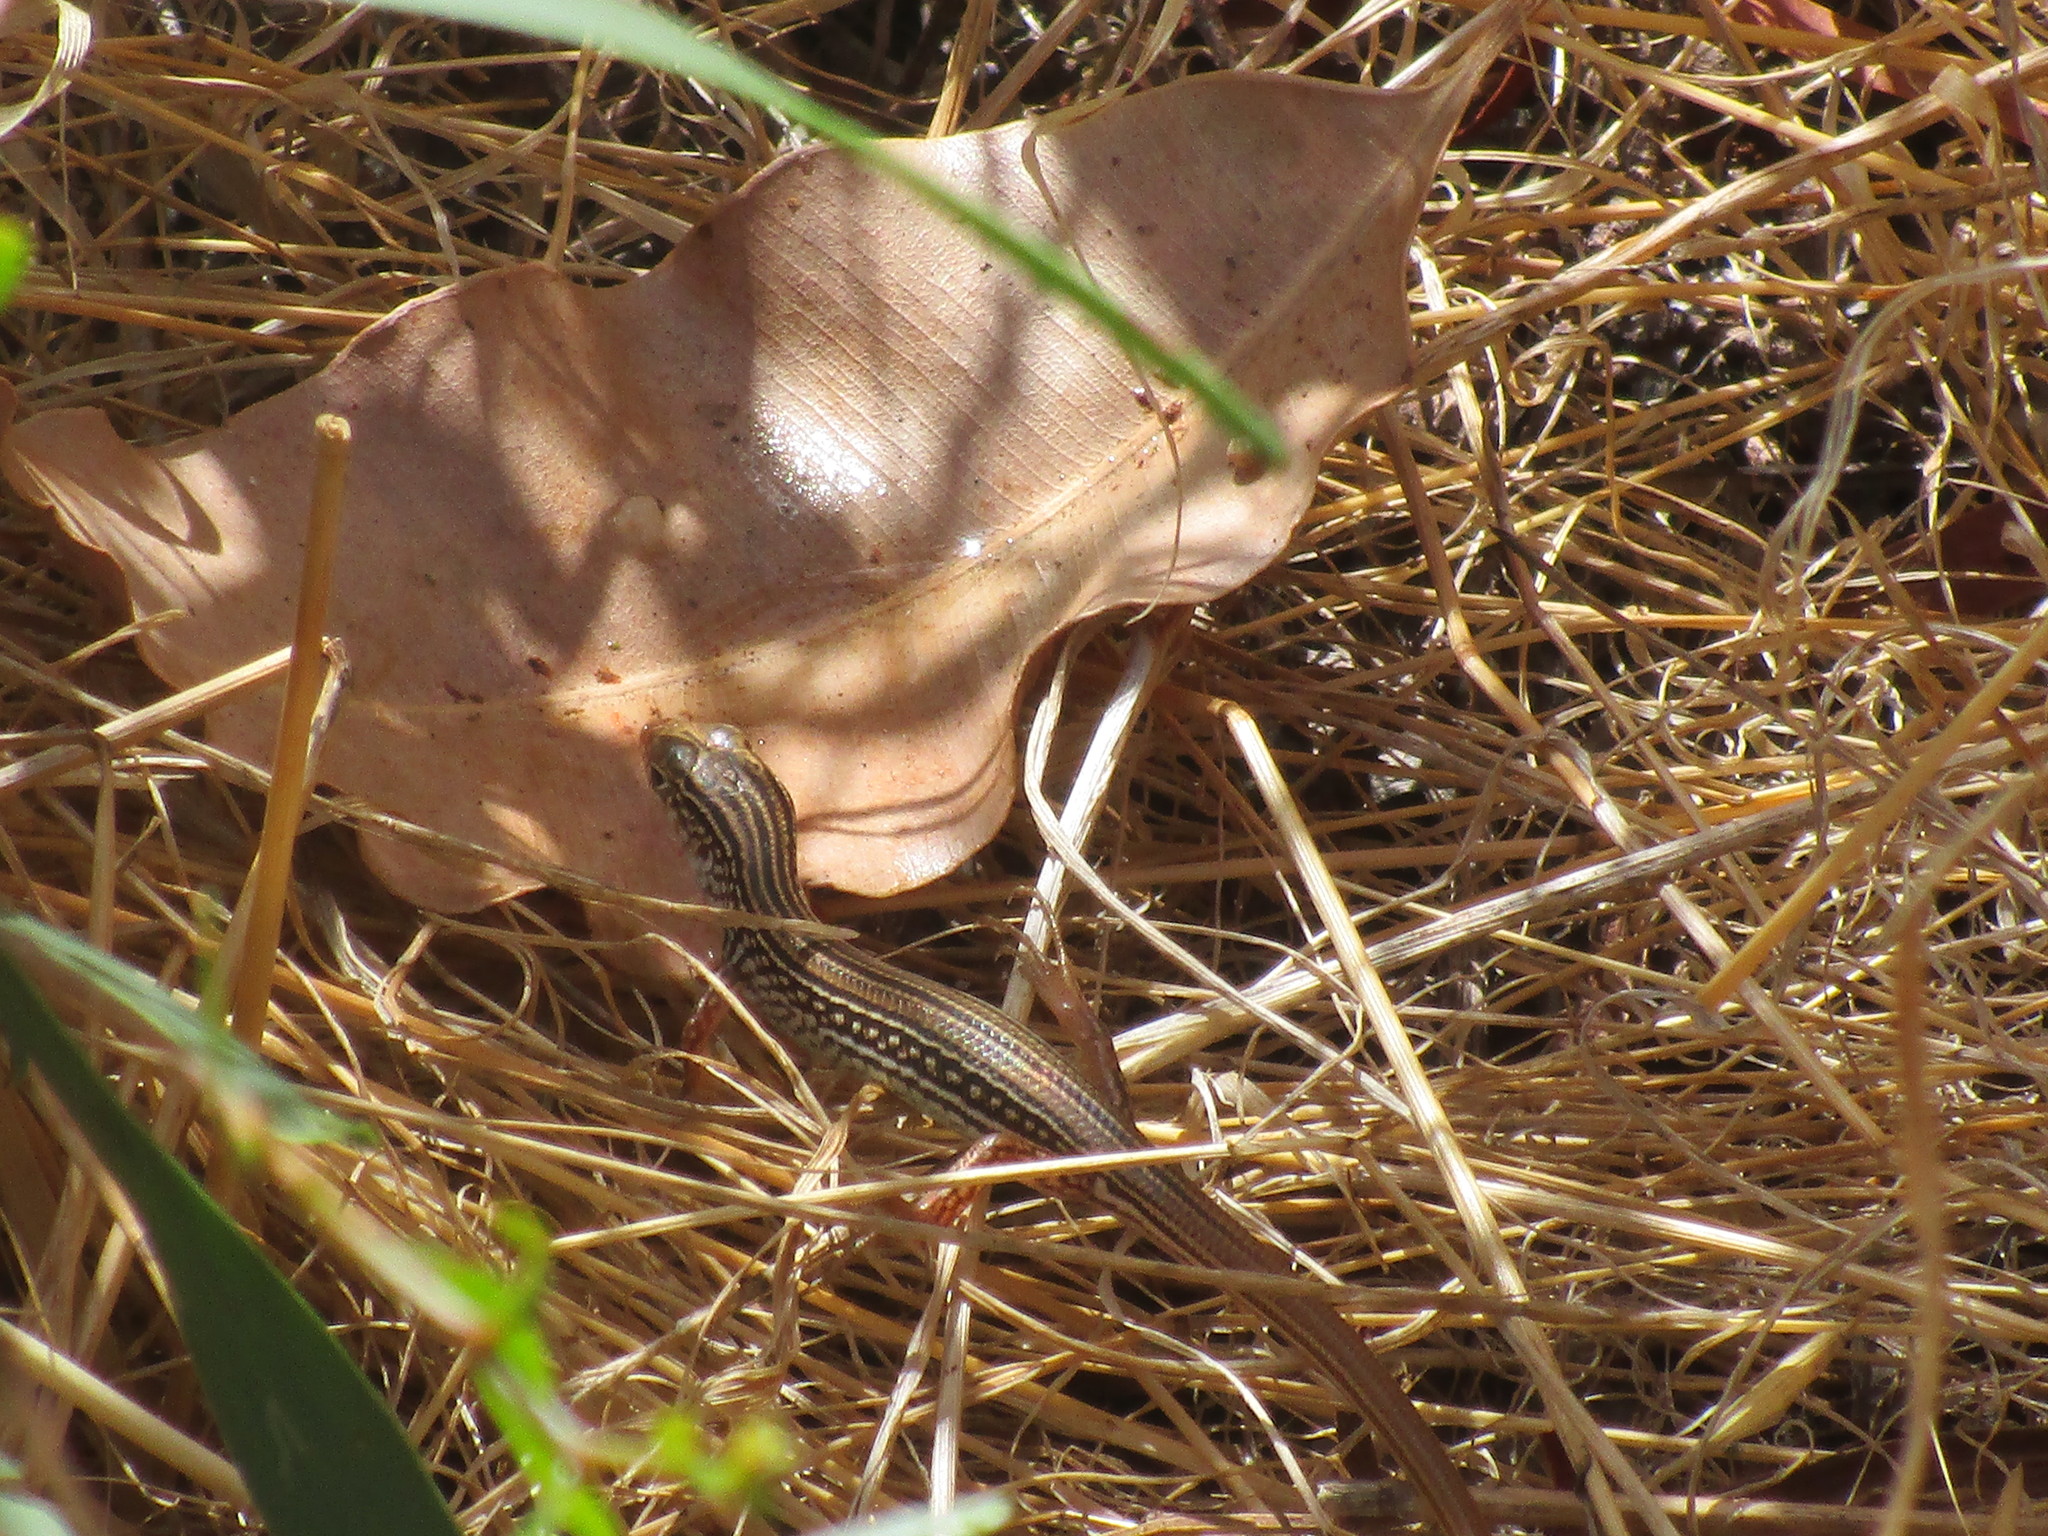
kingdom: Animalia
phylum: Chordata
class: Squamata
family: Scincidae
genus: Ctenotus
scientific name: Ctenotus australis
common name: Western limestone ctenotus
